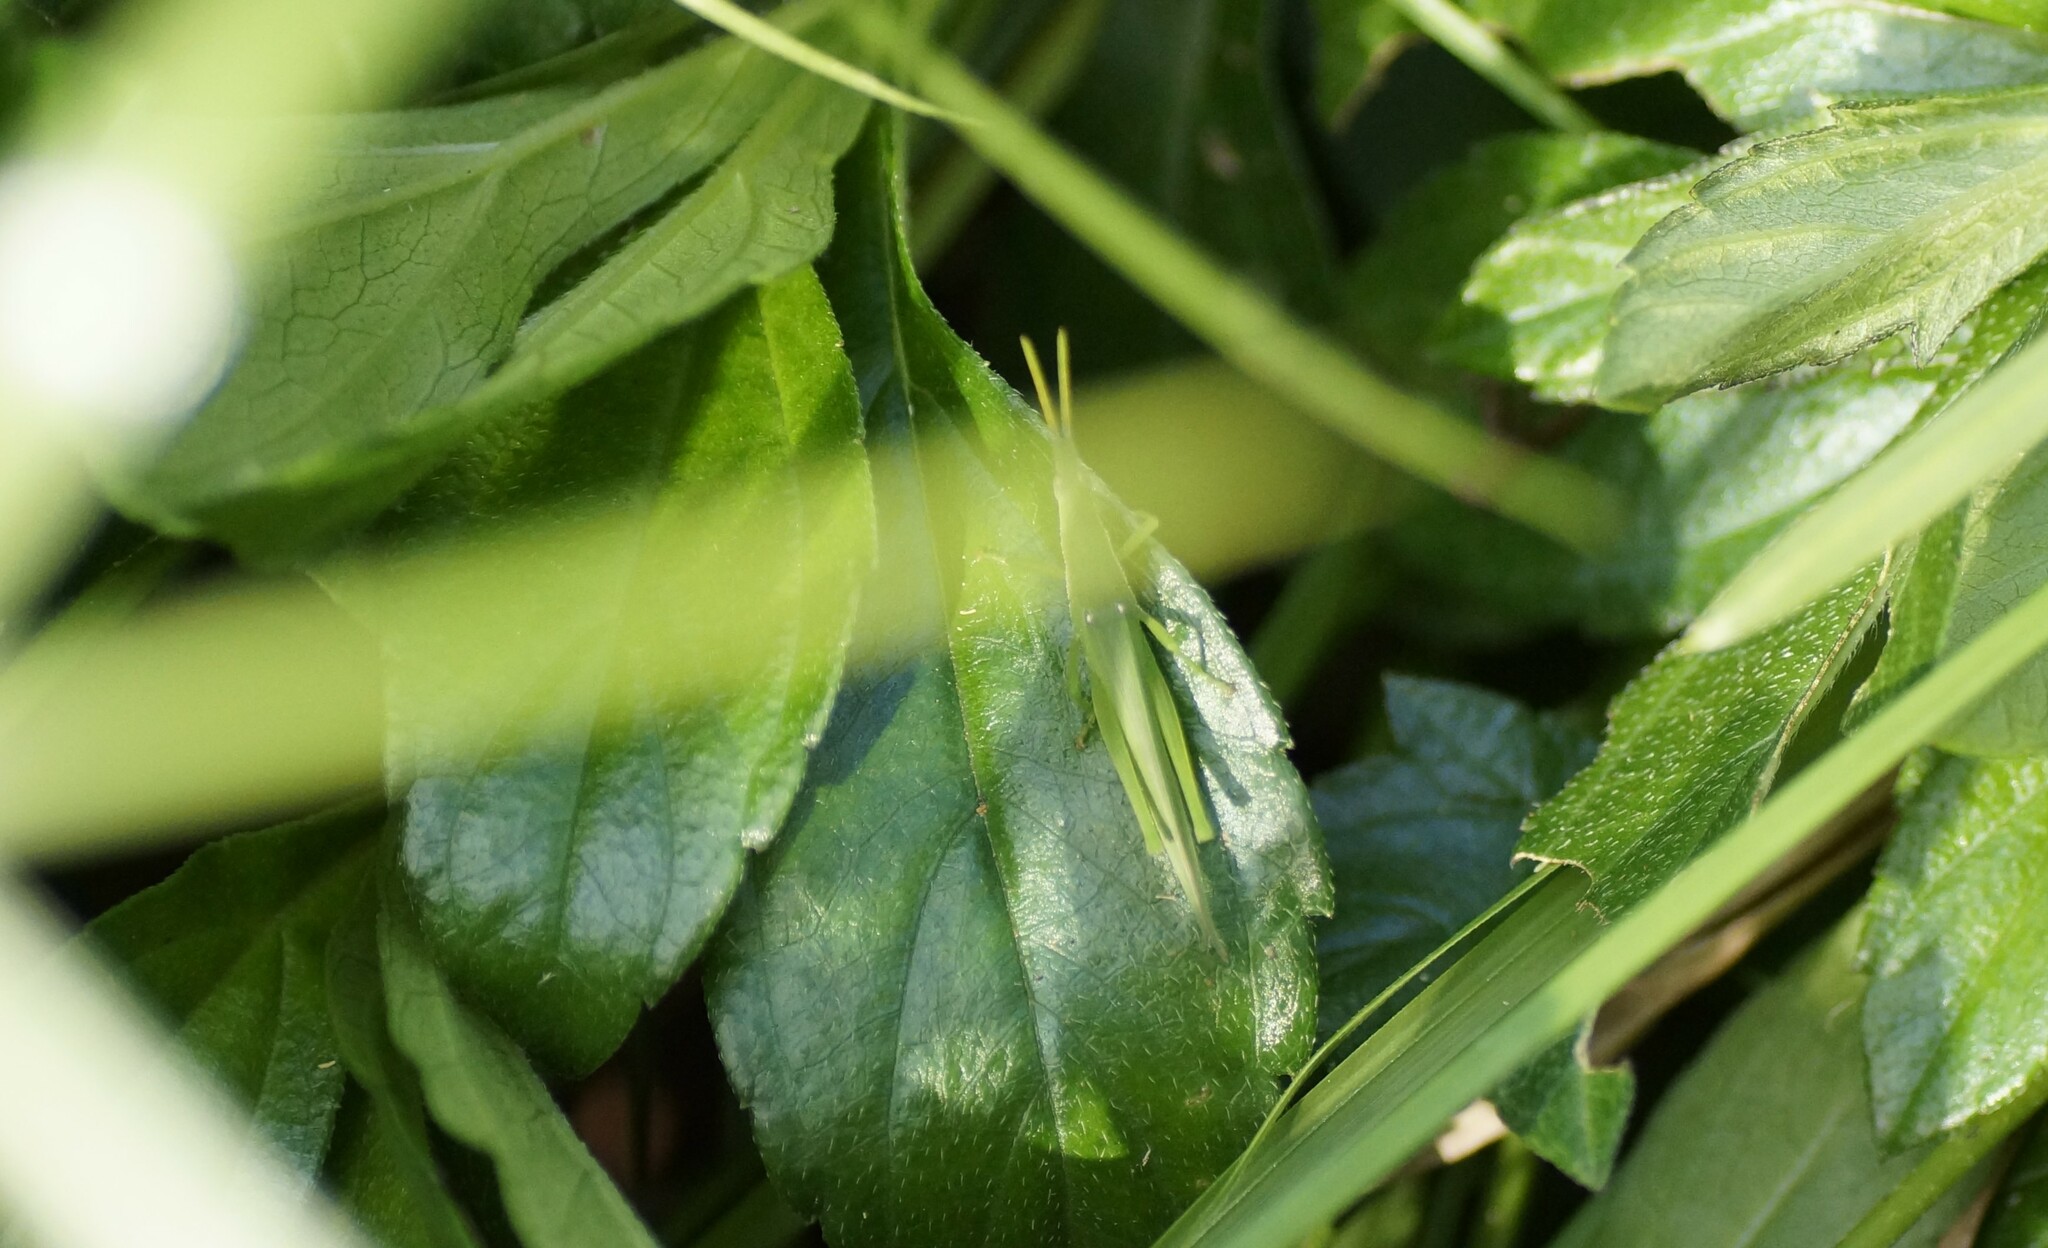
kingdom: Animalia
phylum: Arthropoda
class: Insecta
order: Orthoptera
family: Pyrgomorphidae
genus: Atractomorpha
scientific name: Atractomorpha similis
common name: Northern grass pyrgomorph
